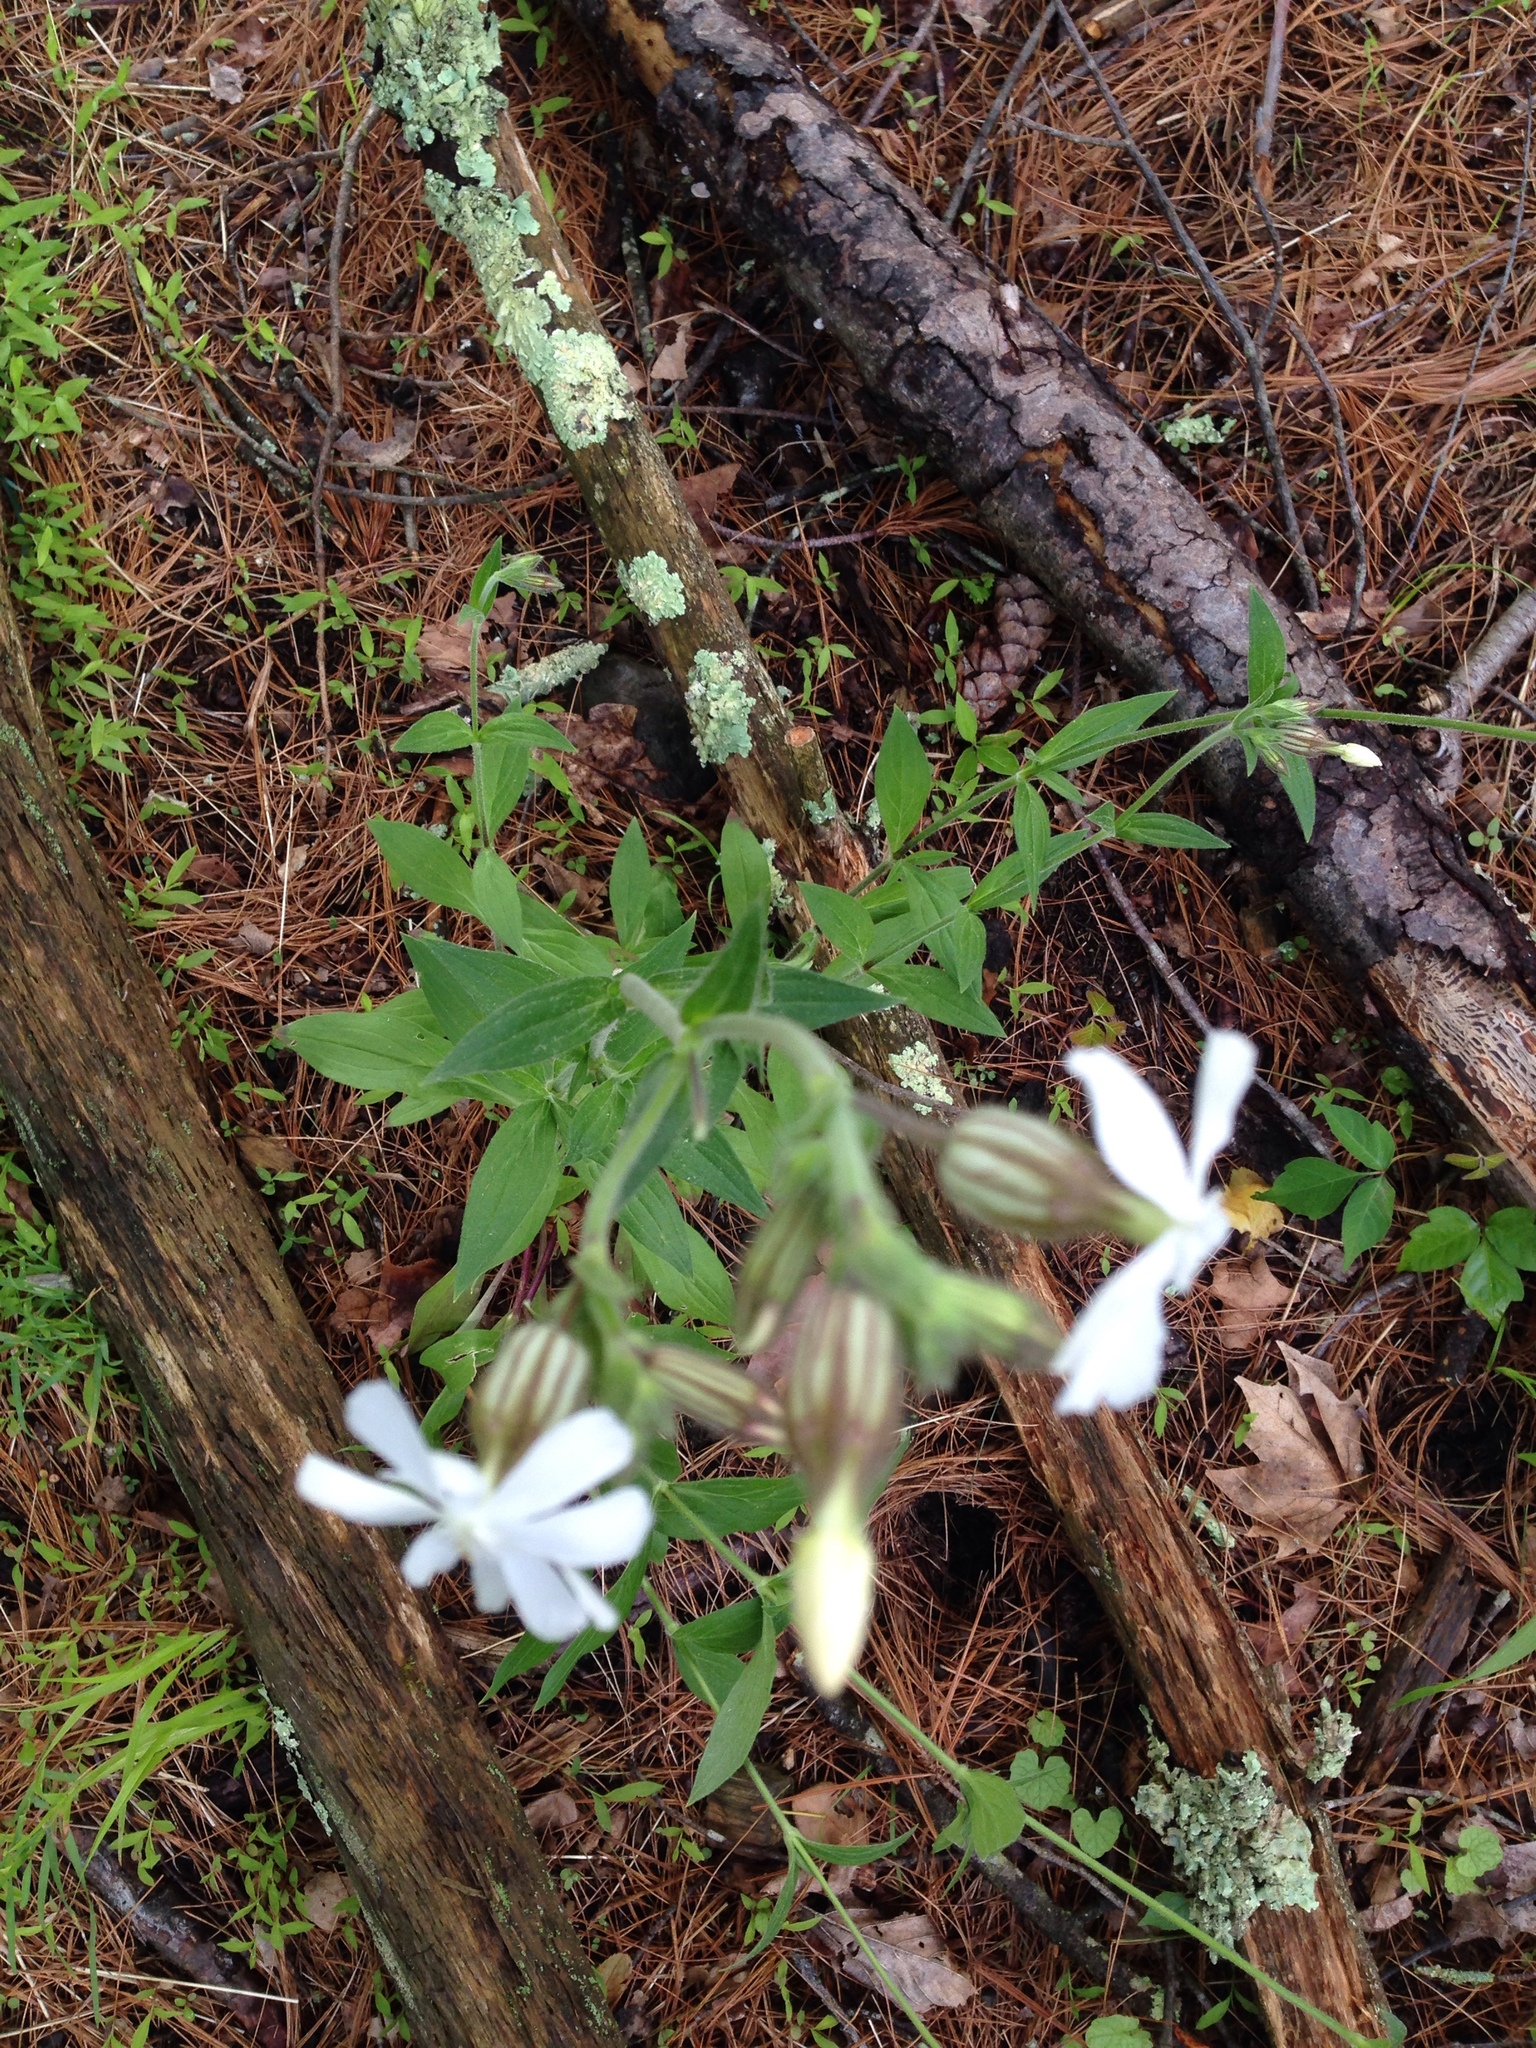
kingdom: Plantae
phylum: Tracheophyta
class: Magnoliopsida
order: Caryophyllales
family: Caryophyllaceae
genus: Silene
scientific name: Silene latifolia
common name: White campion
